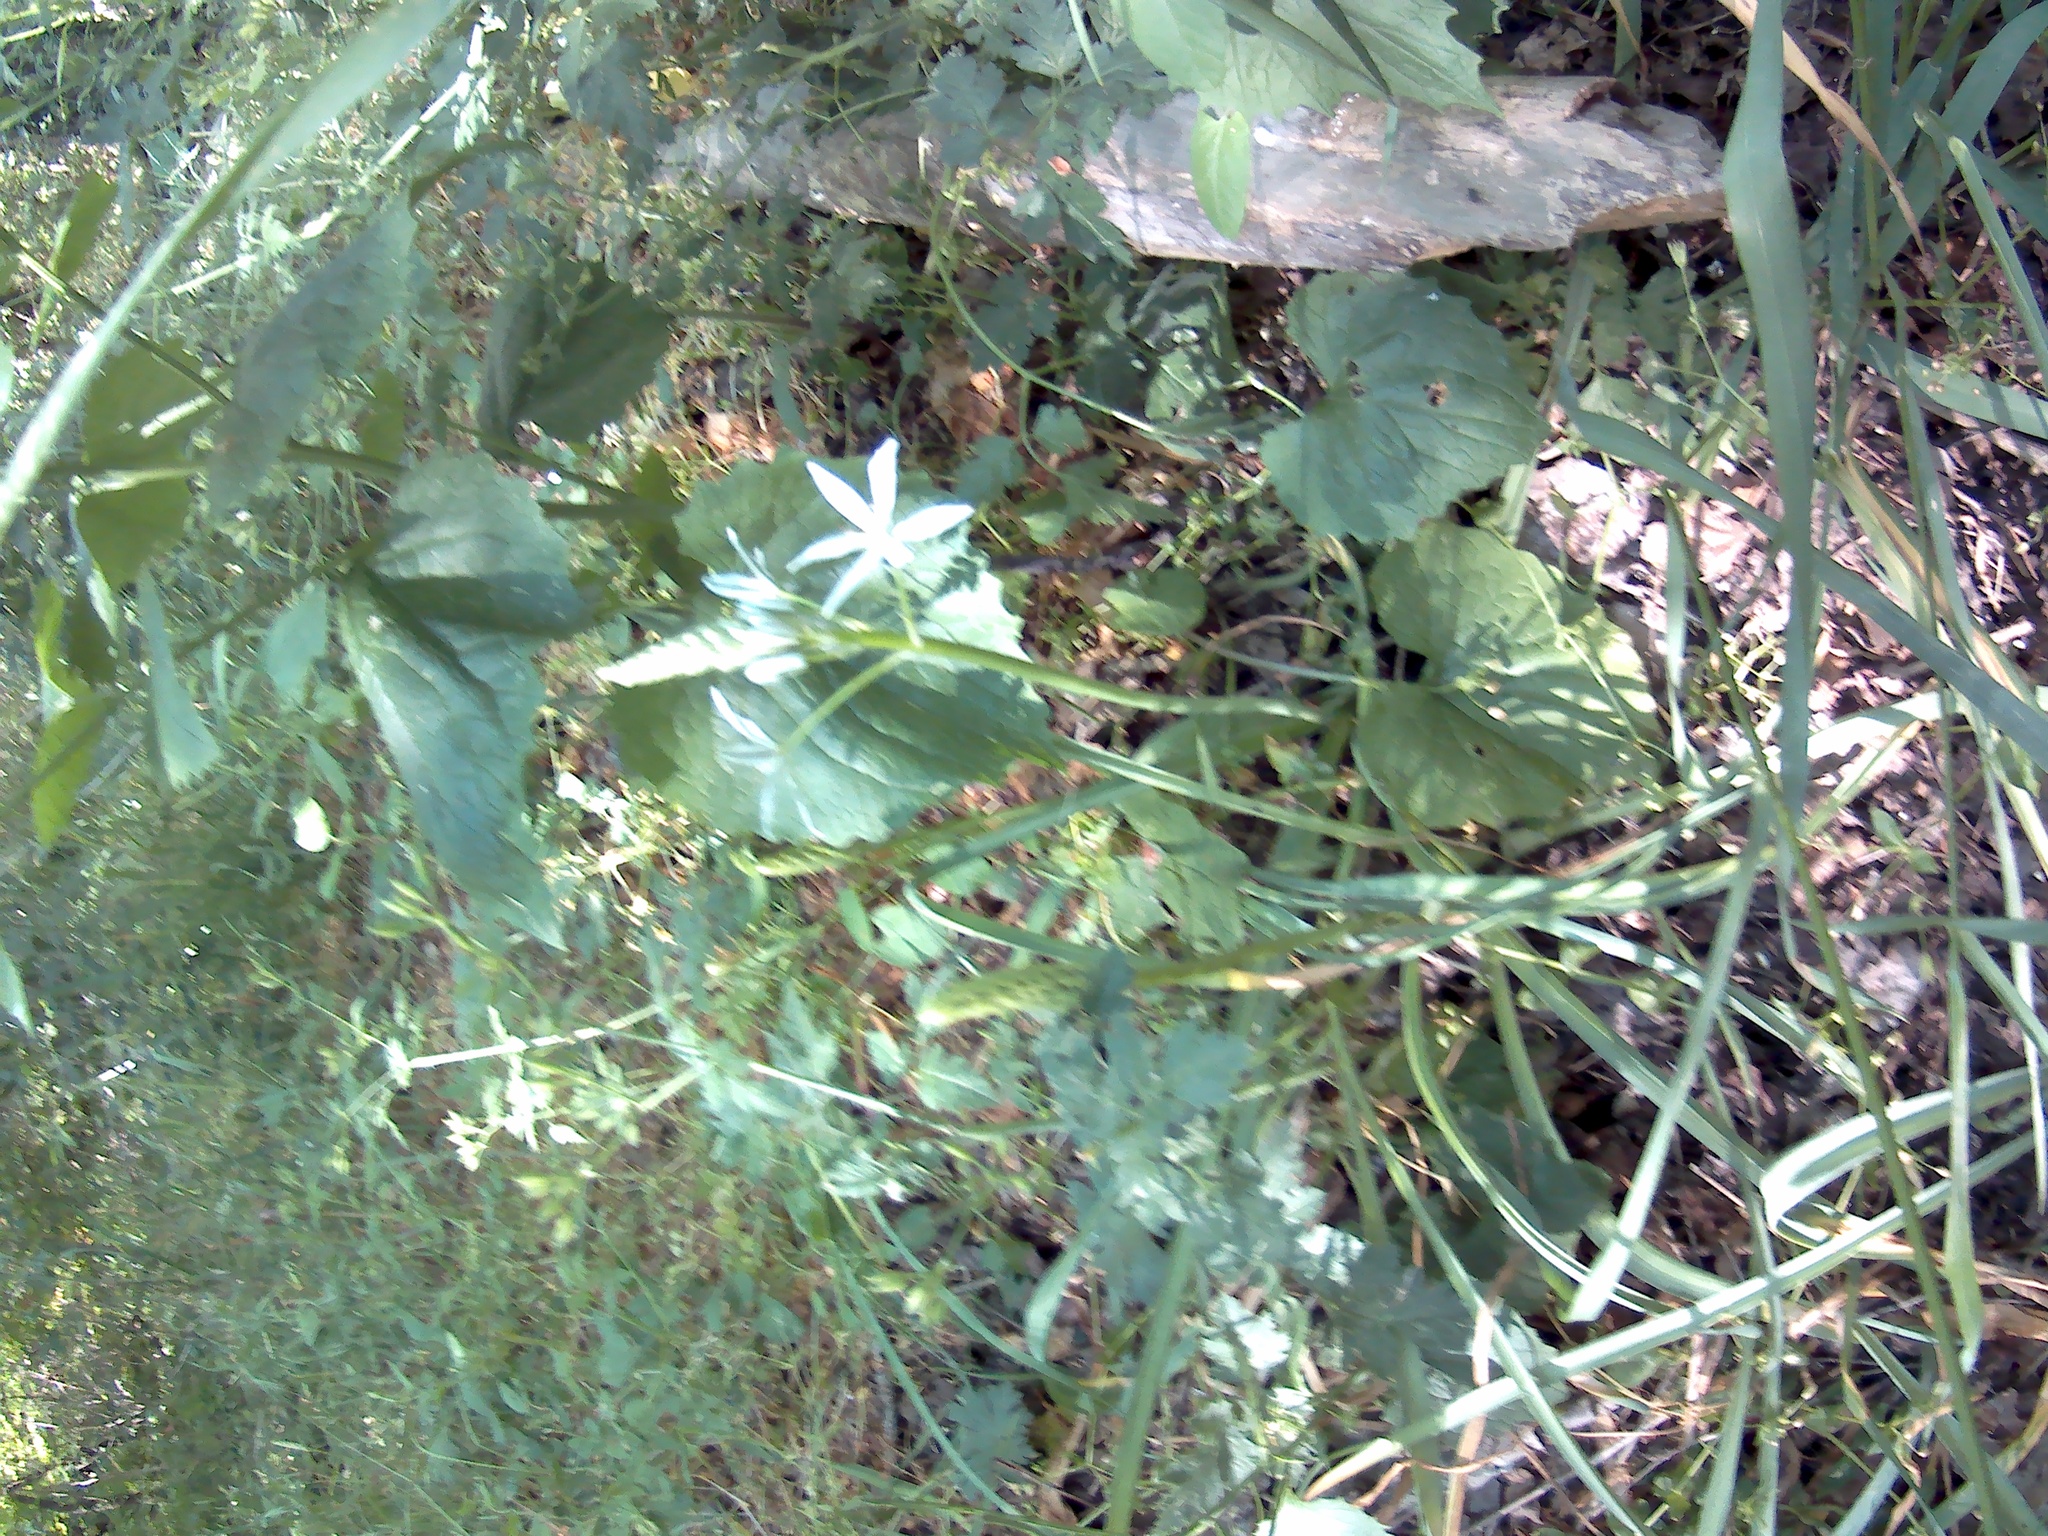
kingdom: Plantae
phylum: Tracheophyta
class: Liliopsida
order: Asparagales
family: Asparagaceae
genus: Ornithogalum
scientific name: Ornithogalum ponticum
